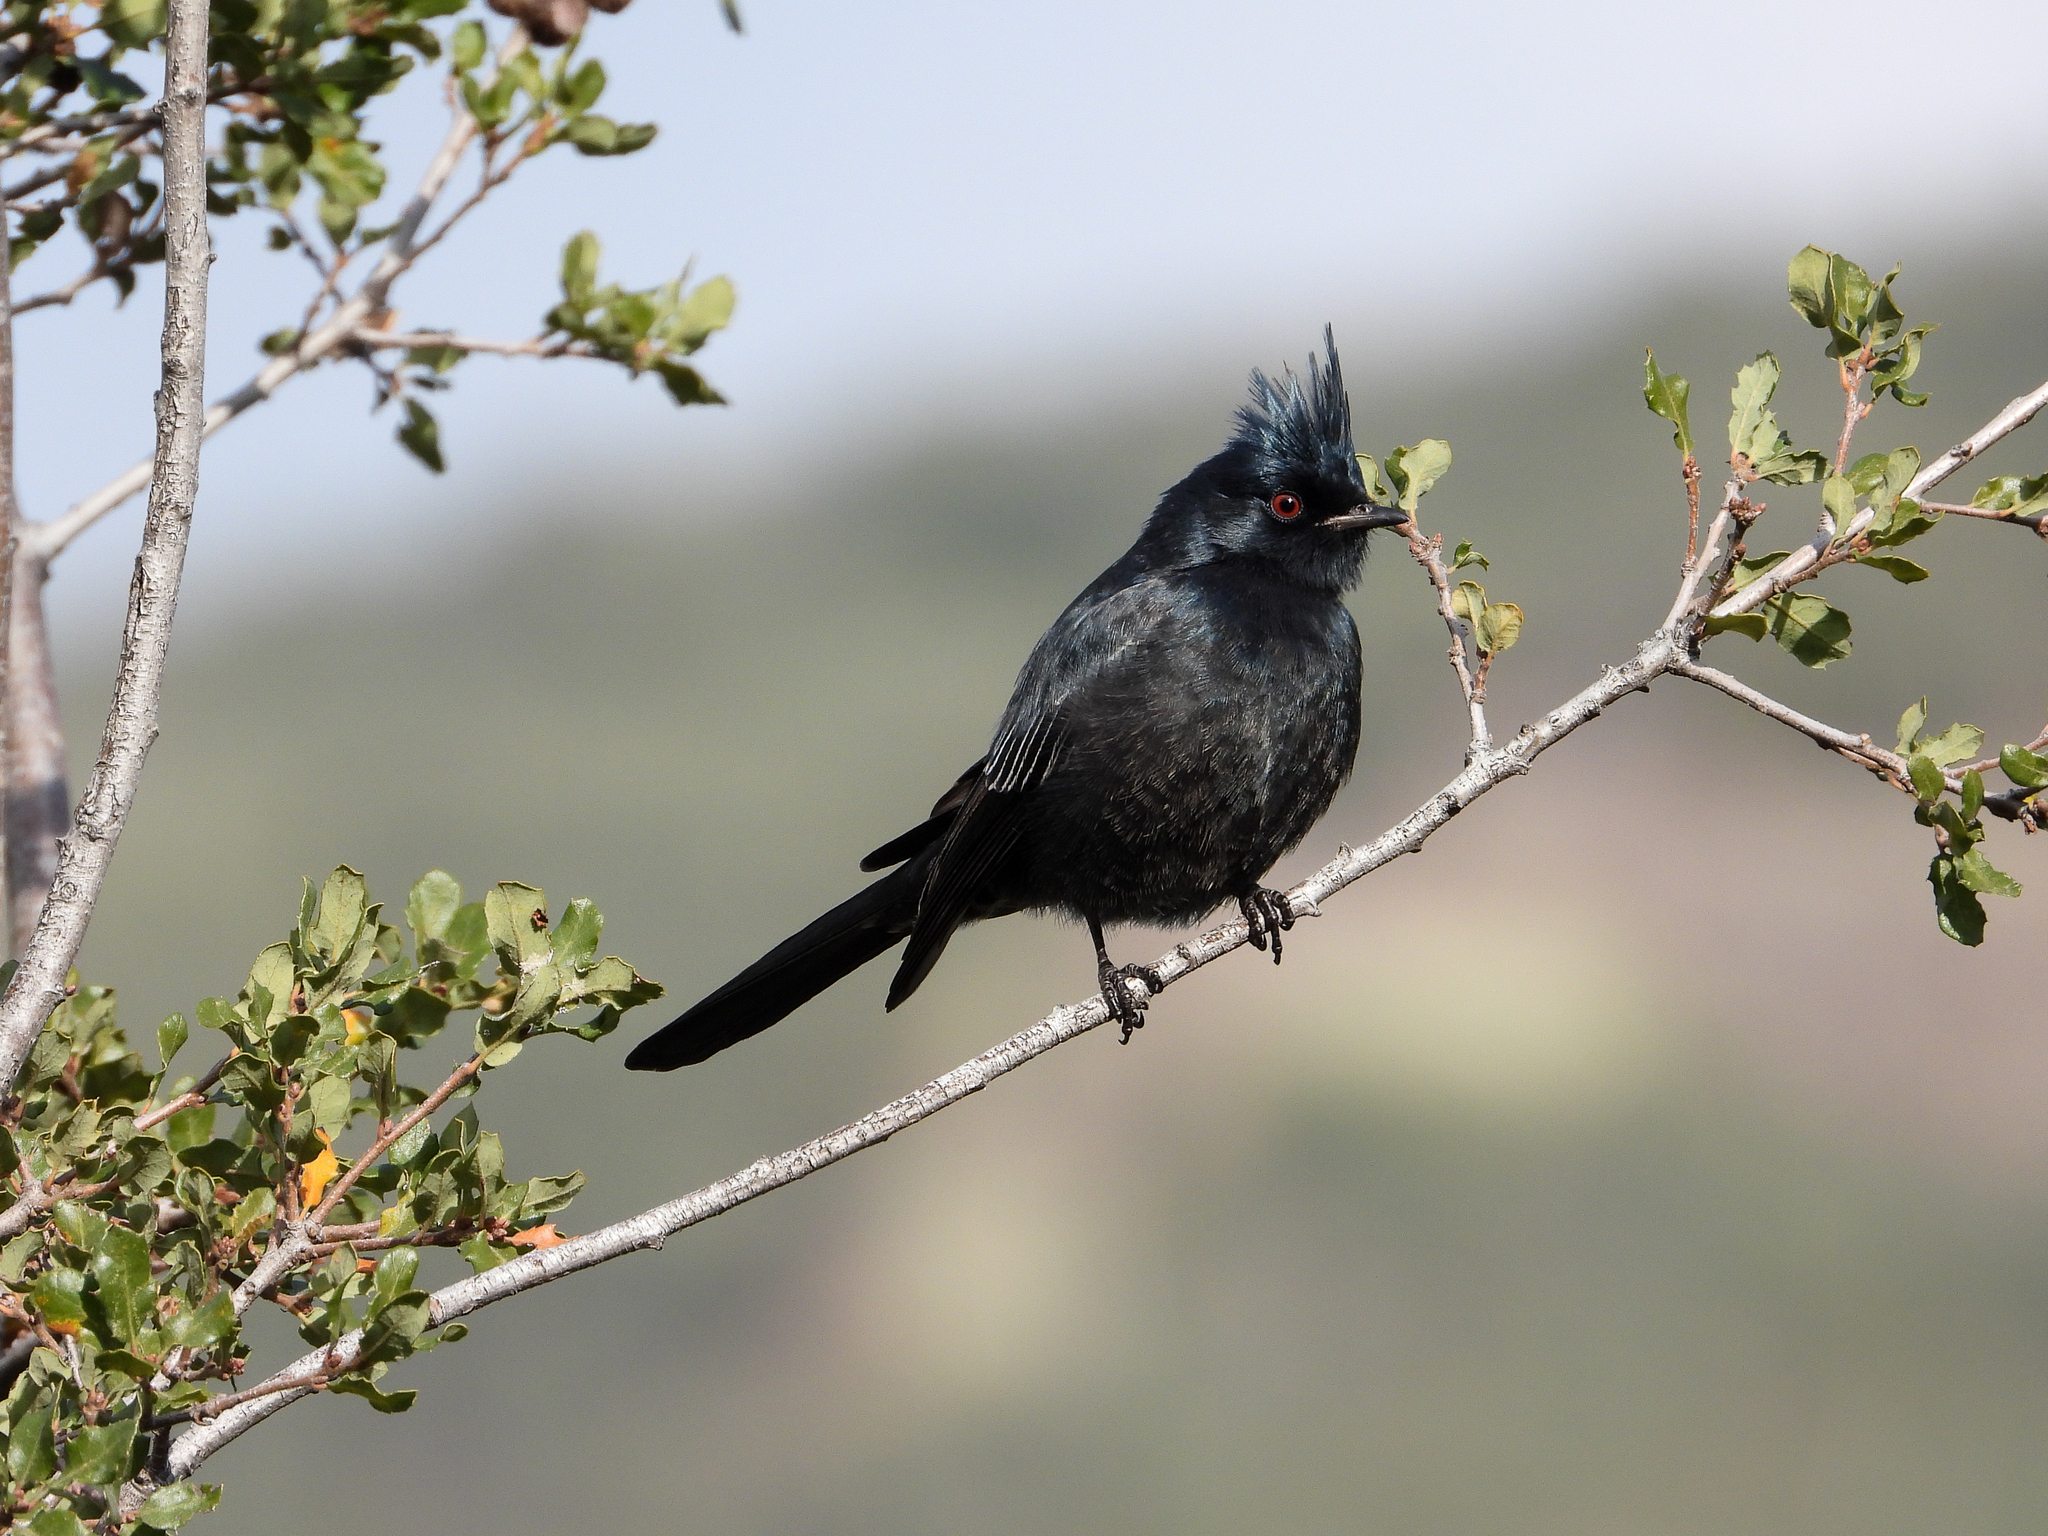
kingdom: Animalia
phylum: Chordata
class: Aves
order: Passeriformes
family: Ptilogonatidae
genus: Phainopepla
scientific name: Phainopepla nitens
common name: Phainopepla
